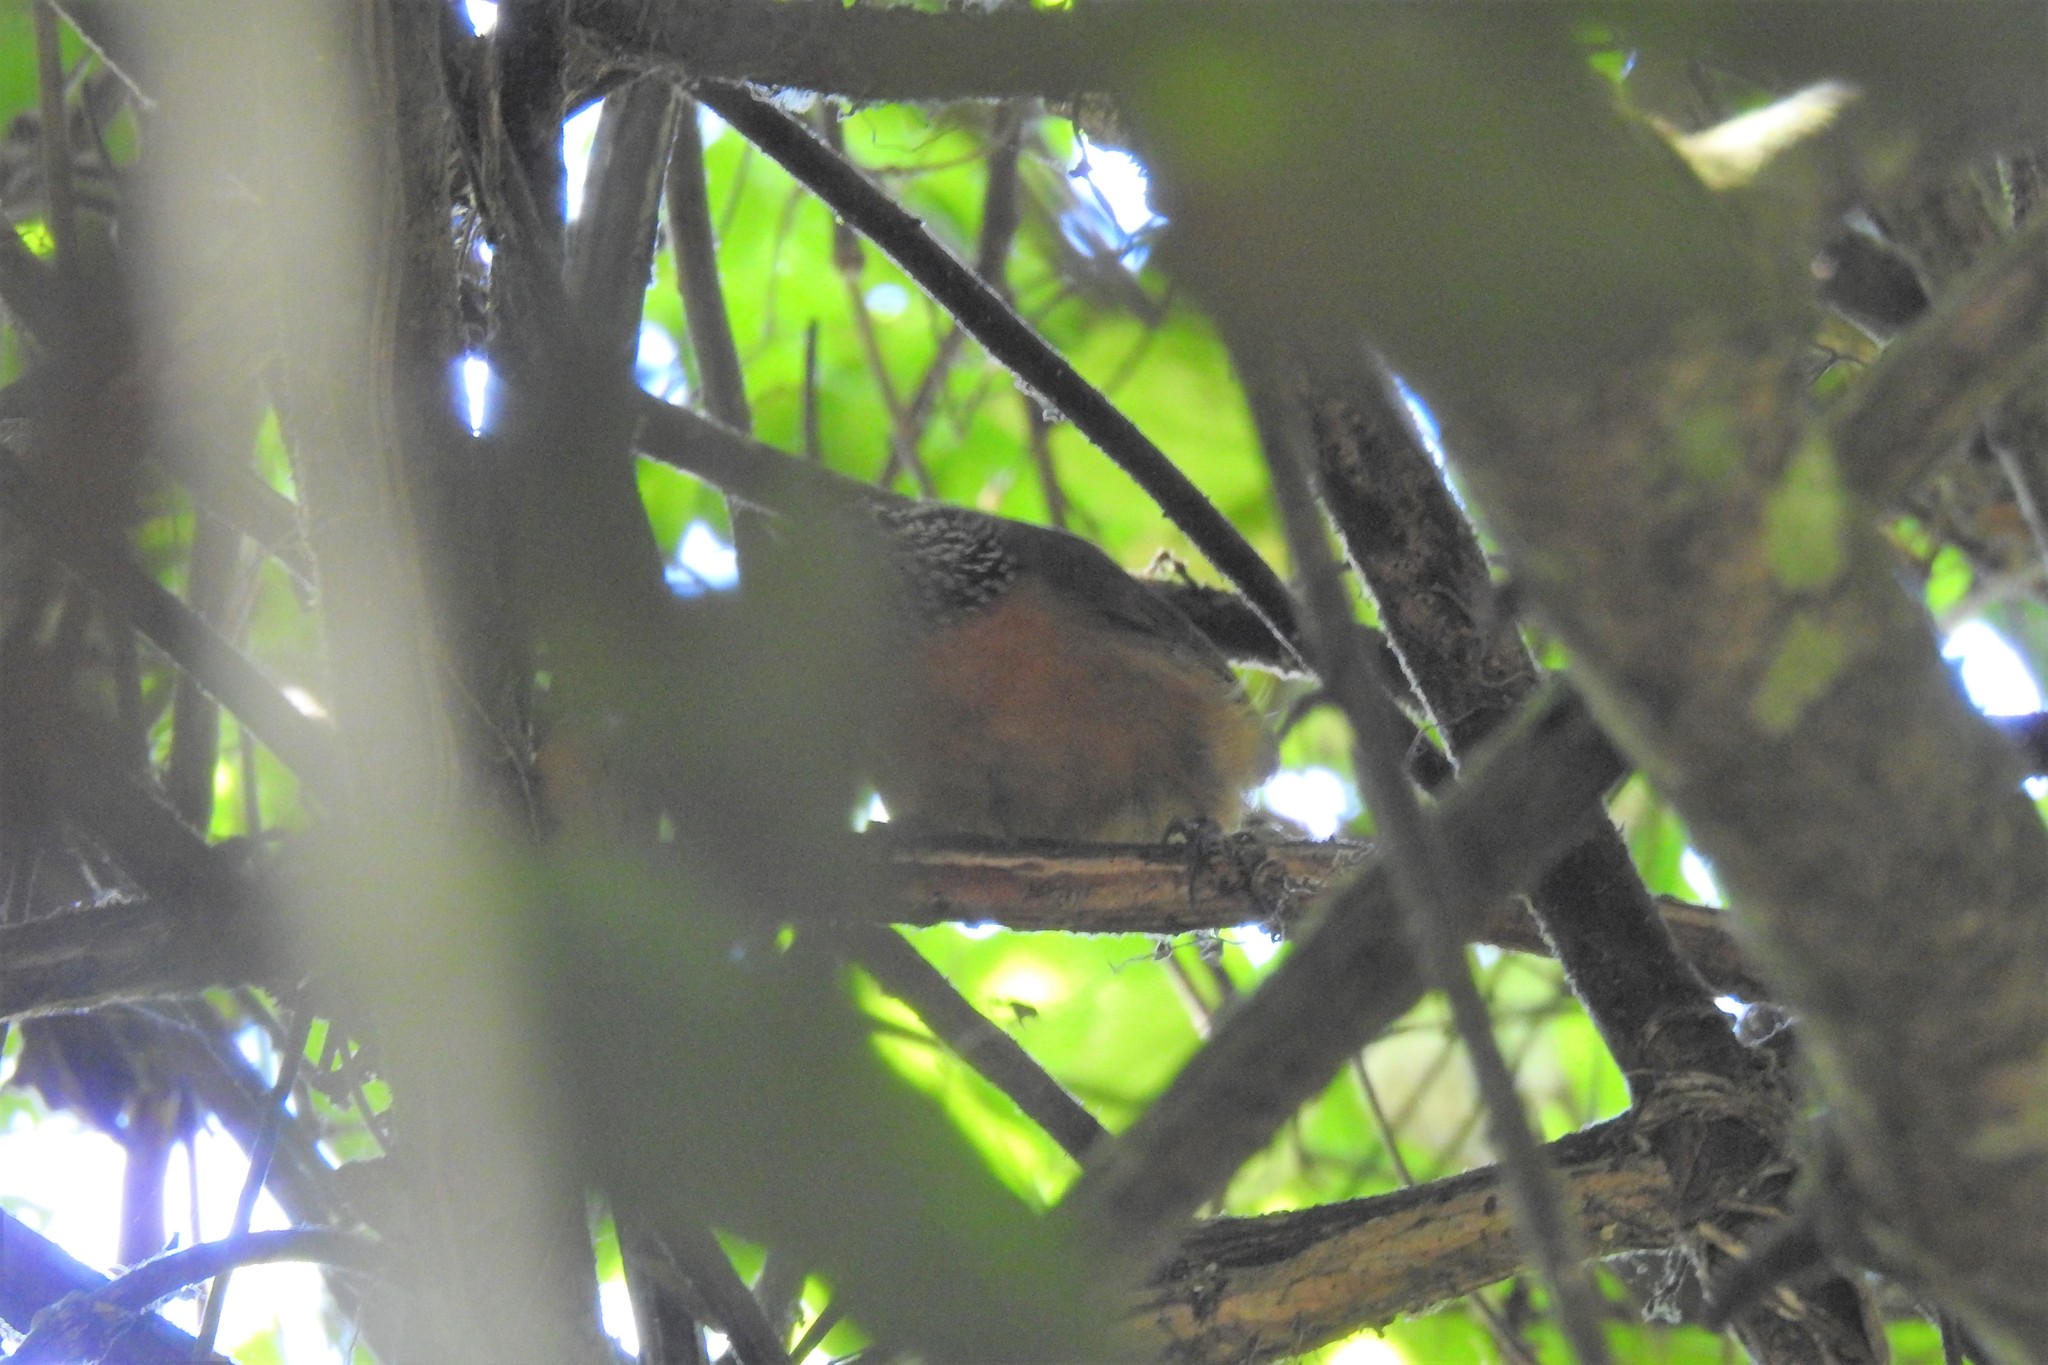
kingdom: Animalia
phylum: Chordata
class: Aves
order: Passeriformes
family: Troglodytidae
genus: Pheugopedius
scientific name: Pheugopedius rutilus
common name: Rufous-breasted wren
